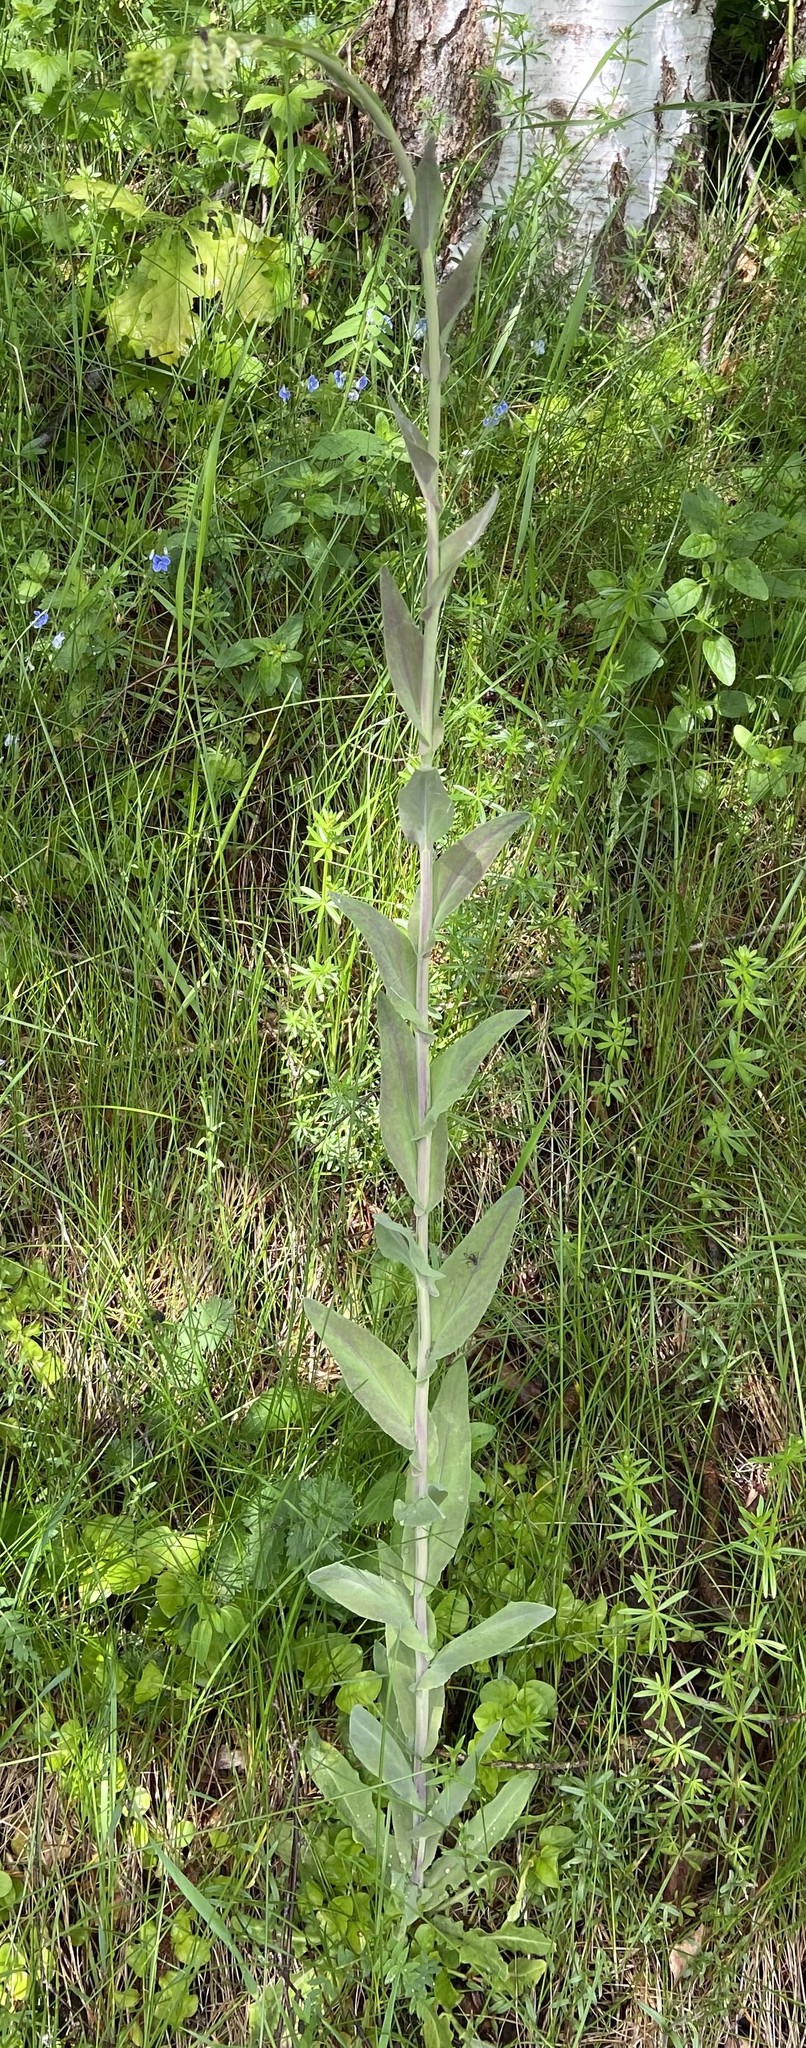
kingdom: Plantae
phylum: Tracheophyta
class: Magnoliopsida
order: Brassicales
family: Brassicaceae
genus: Turritis
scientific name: Turritis glabra
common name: Tower rockcress
